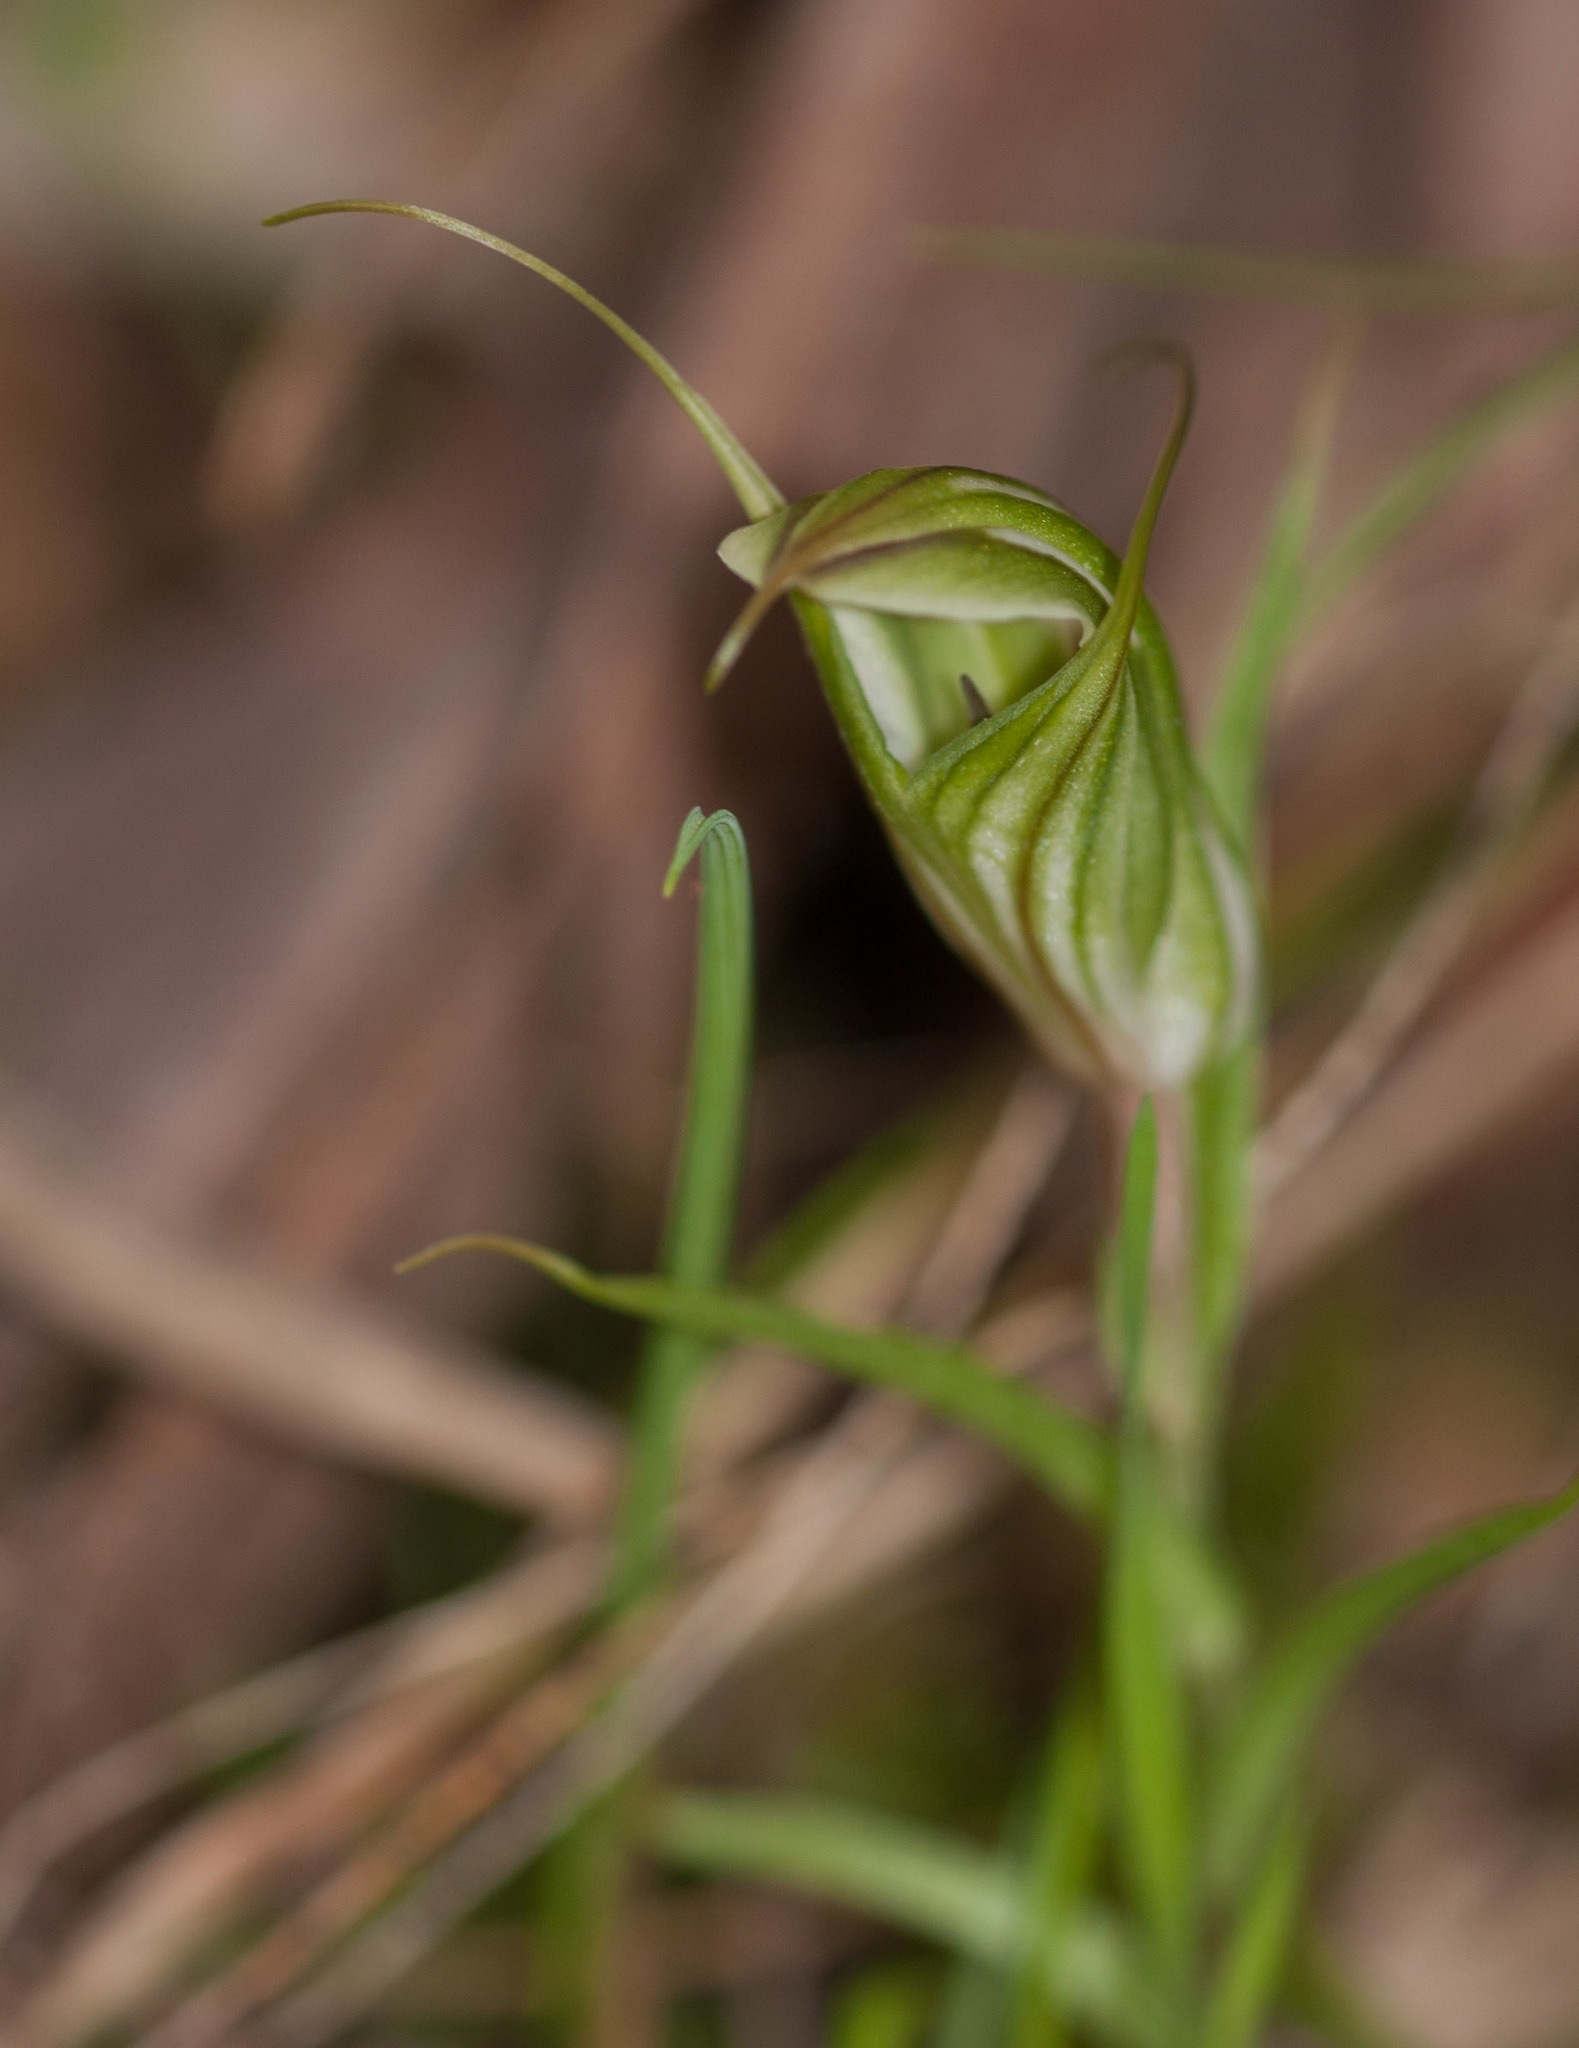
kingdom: Plantae
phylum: Tracheophyta
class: Liliopsida
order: Asparagales
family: Orchidaceae
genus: Pterostylis
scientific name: Pterostylis robusta
